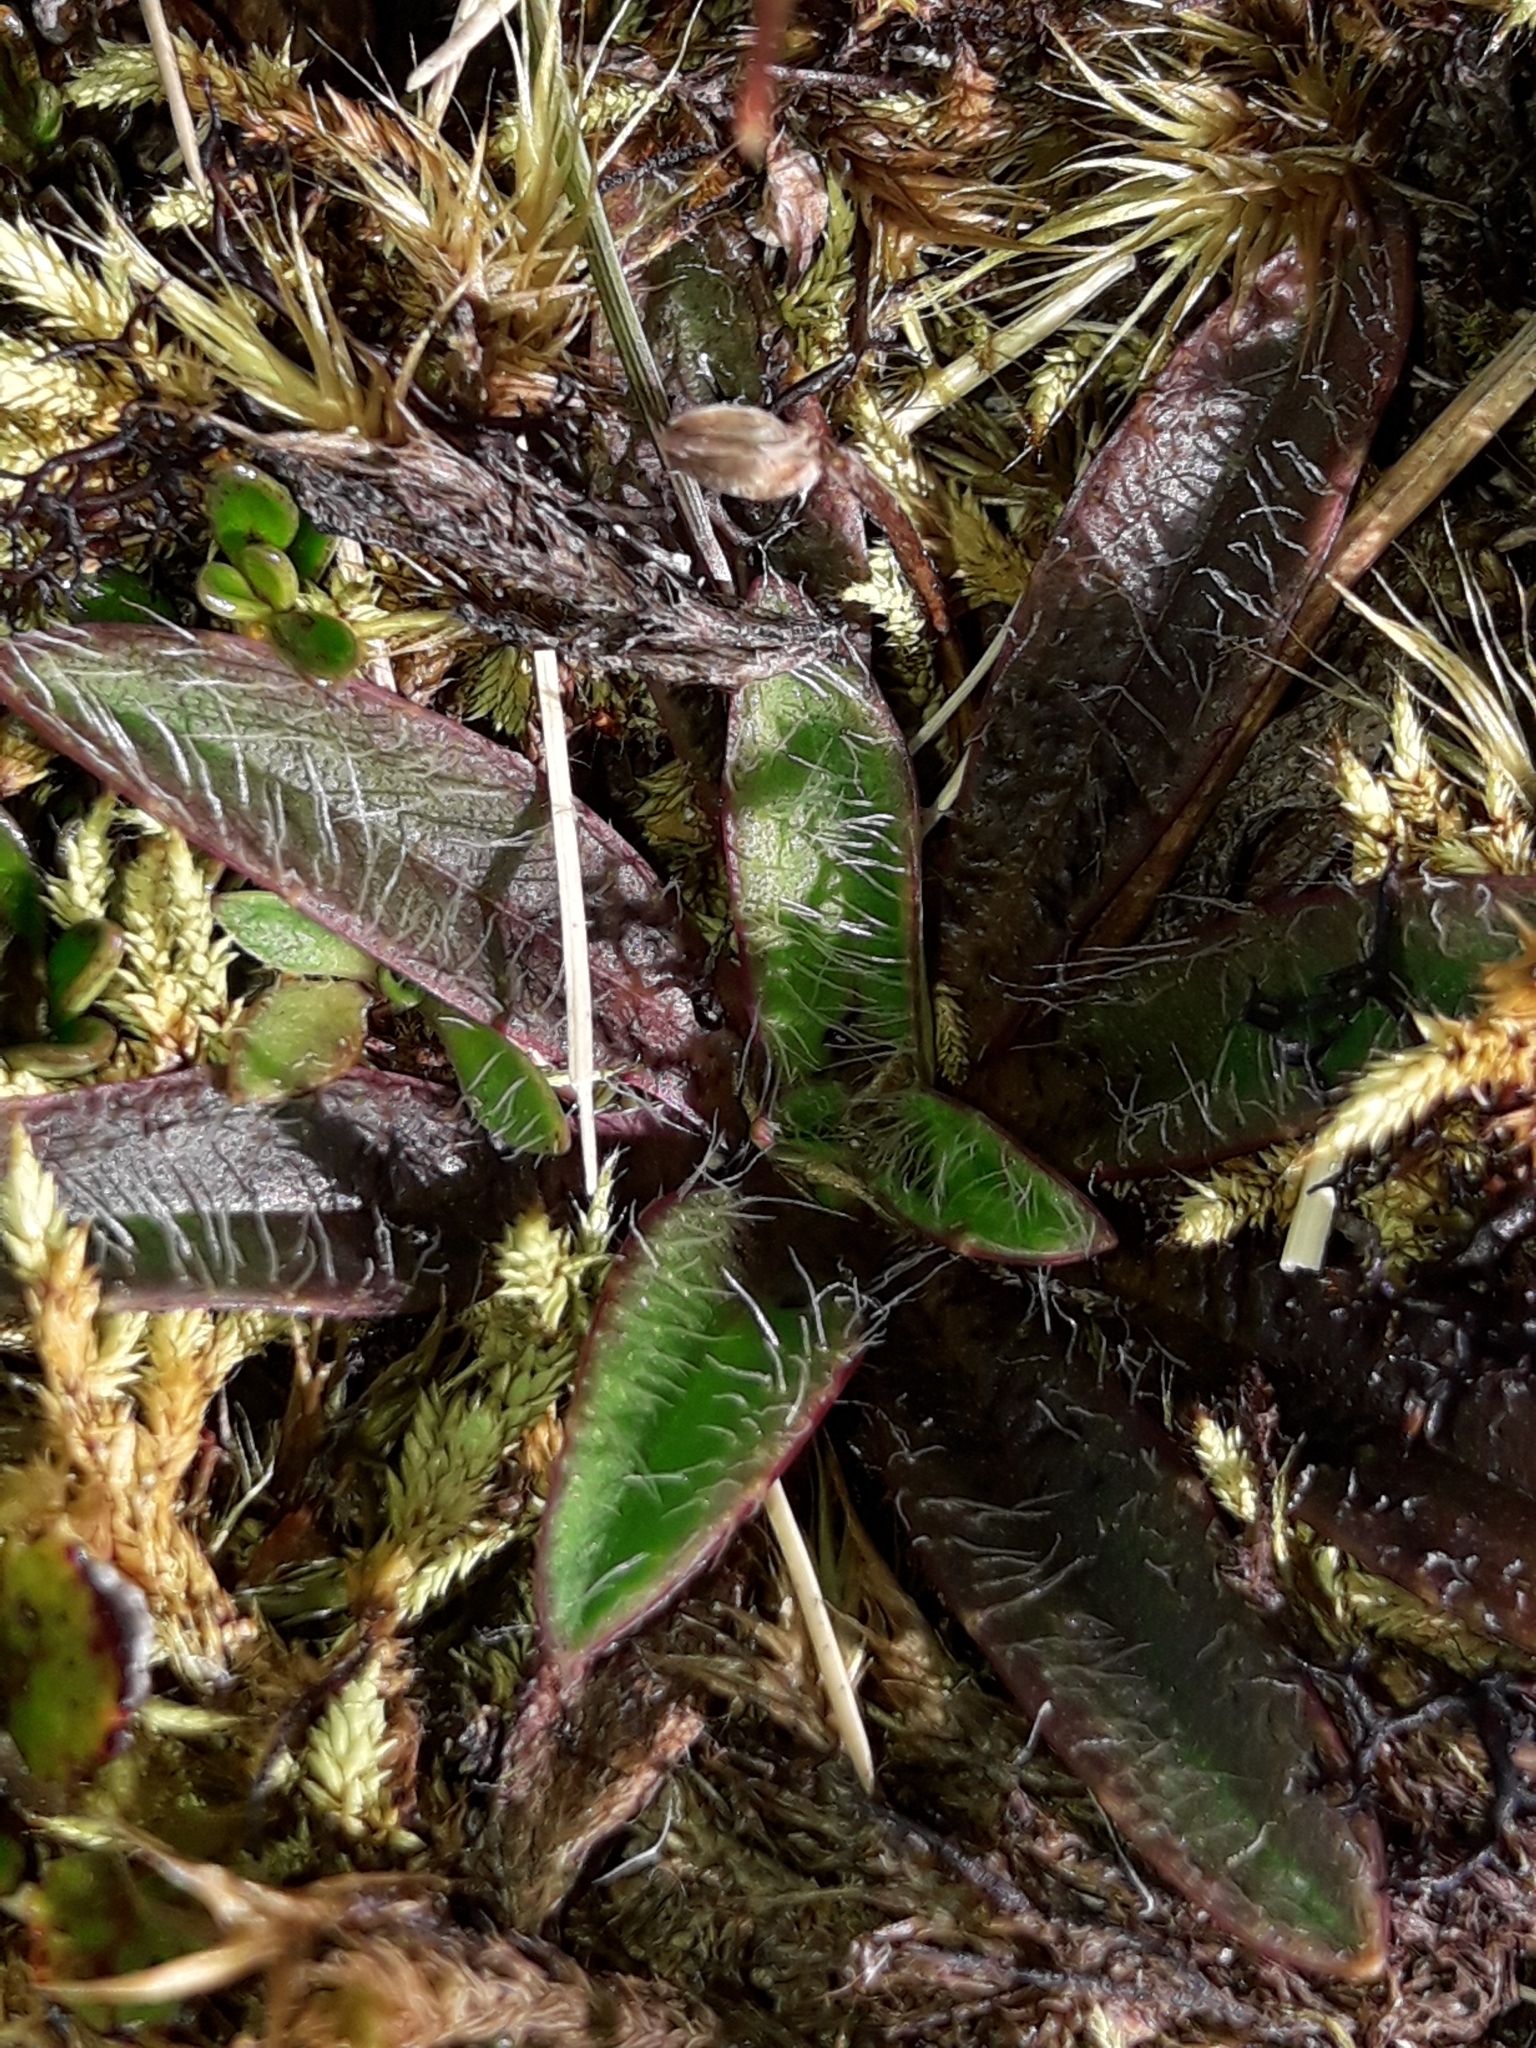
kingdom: Plantae
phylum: Tracheophyta
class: Magnoliopsida
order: Lamiales
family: Plantaginaceae
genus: Plantago
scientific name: Plantago lanigera
